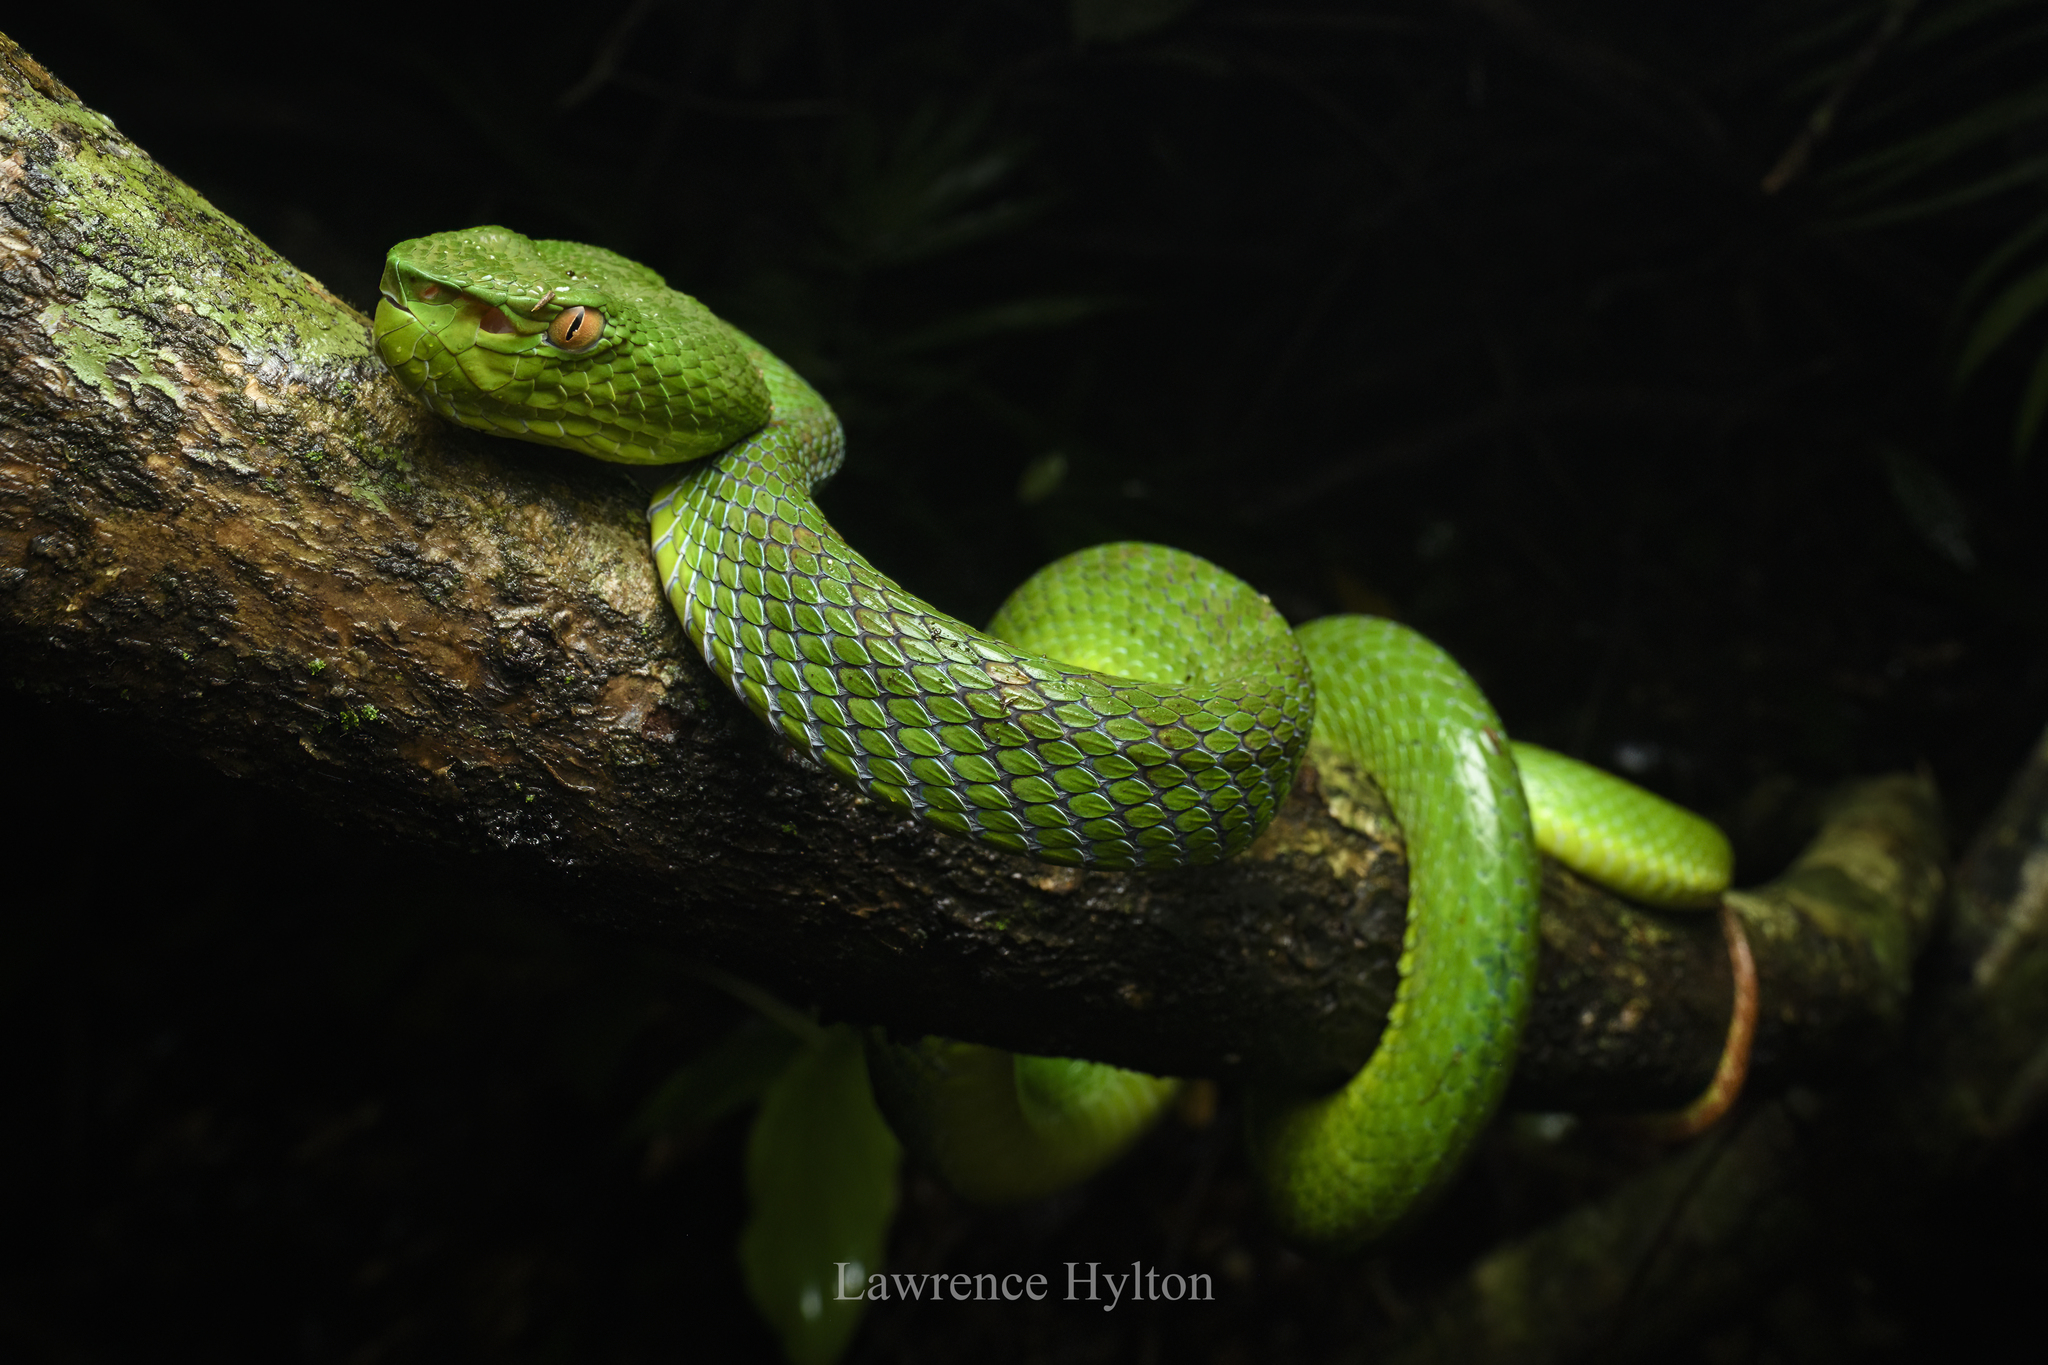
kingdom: Animalia
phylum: Chordata
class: Squamata
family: Viperidae
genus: Trimeresurus
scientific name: Trimeresurus sabahi
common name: Sabah bamboo pit viper
